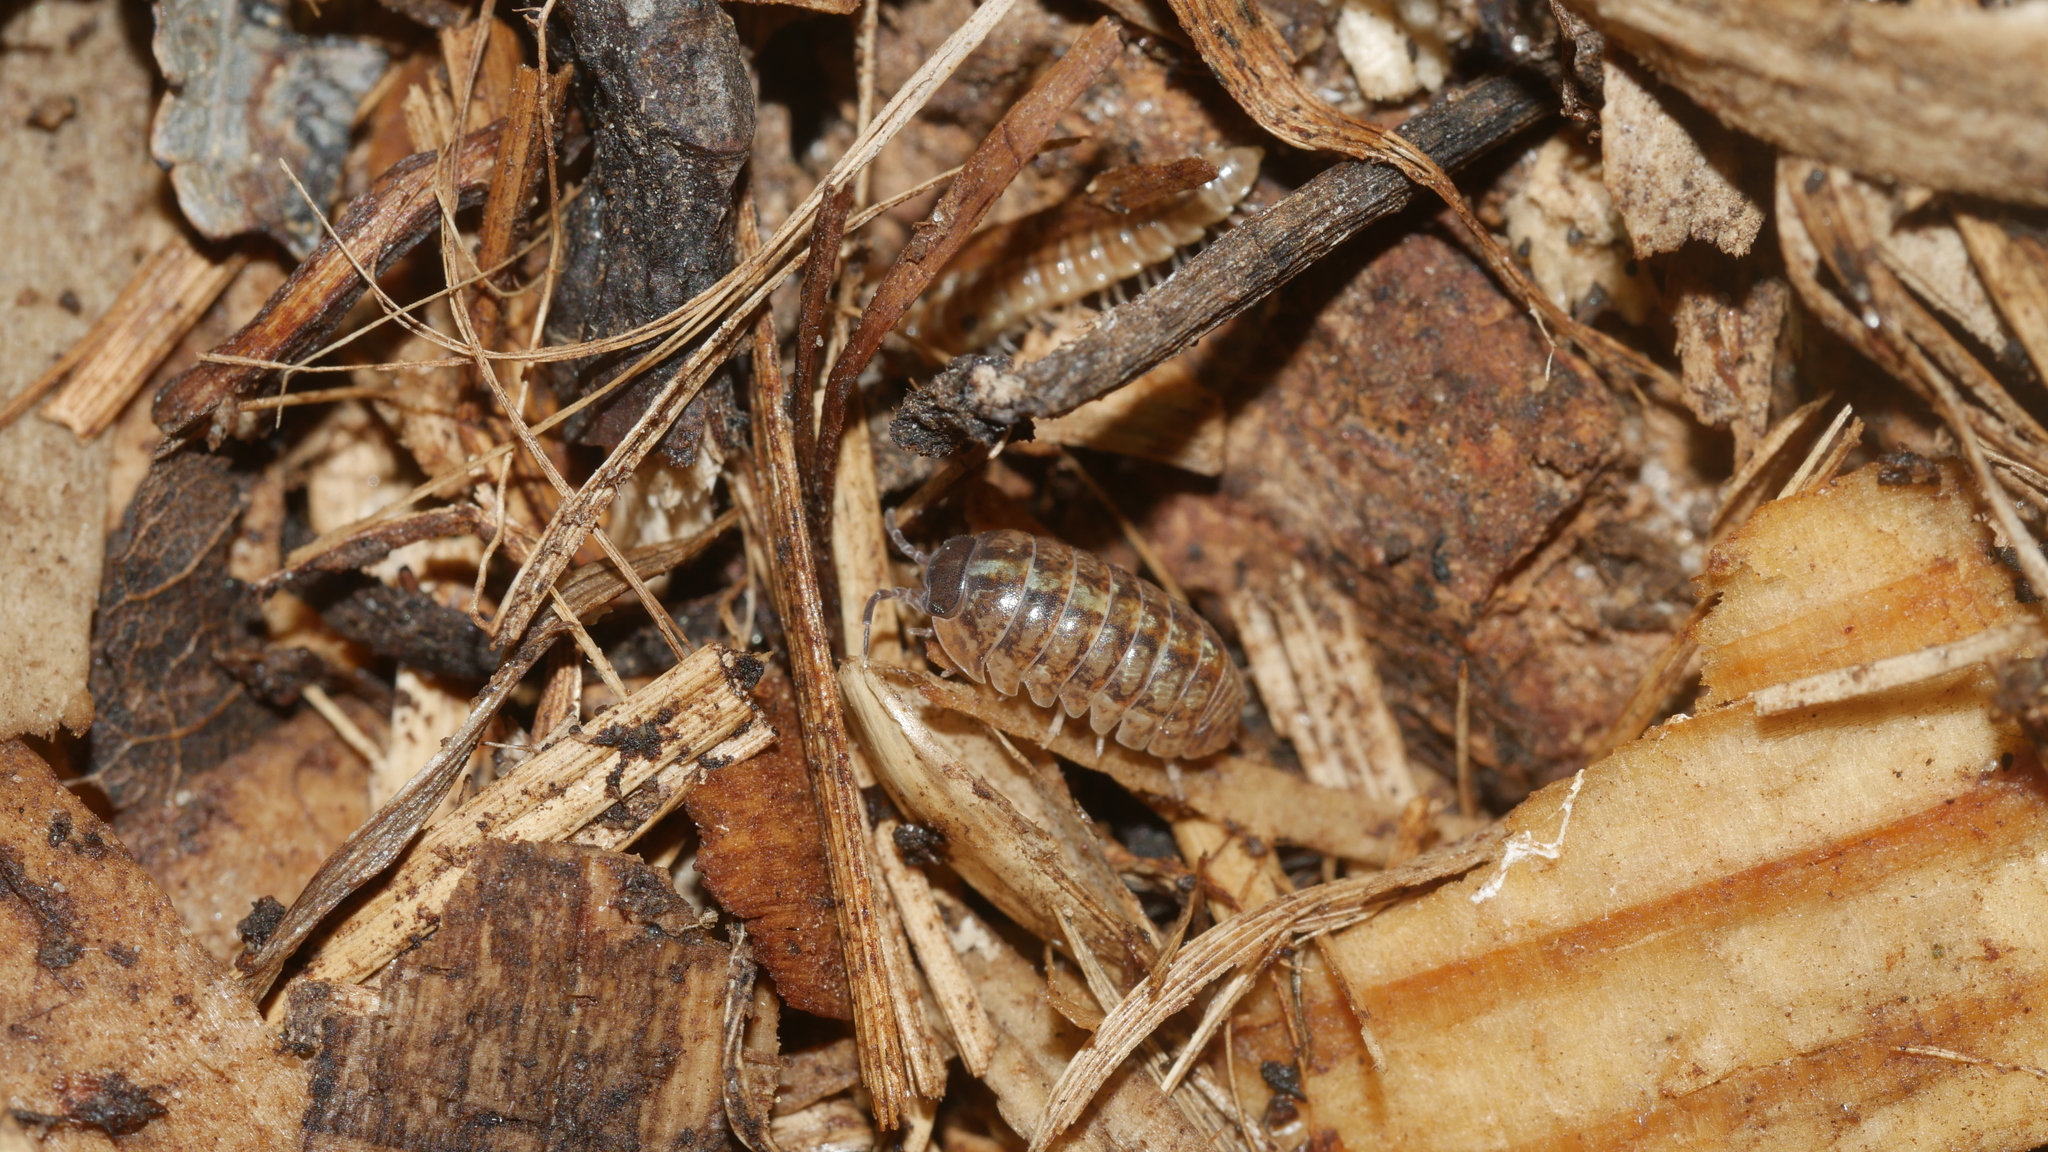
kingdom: Animalia
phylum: Arthropoda
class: Malacostraca
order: Isopoda
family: Armadillidiidae
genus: Armadillidium
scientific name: Armadillidium vulgare
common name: Common pill woodlouse
